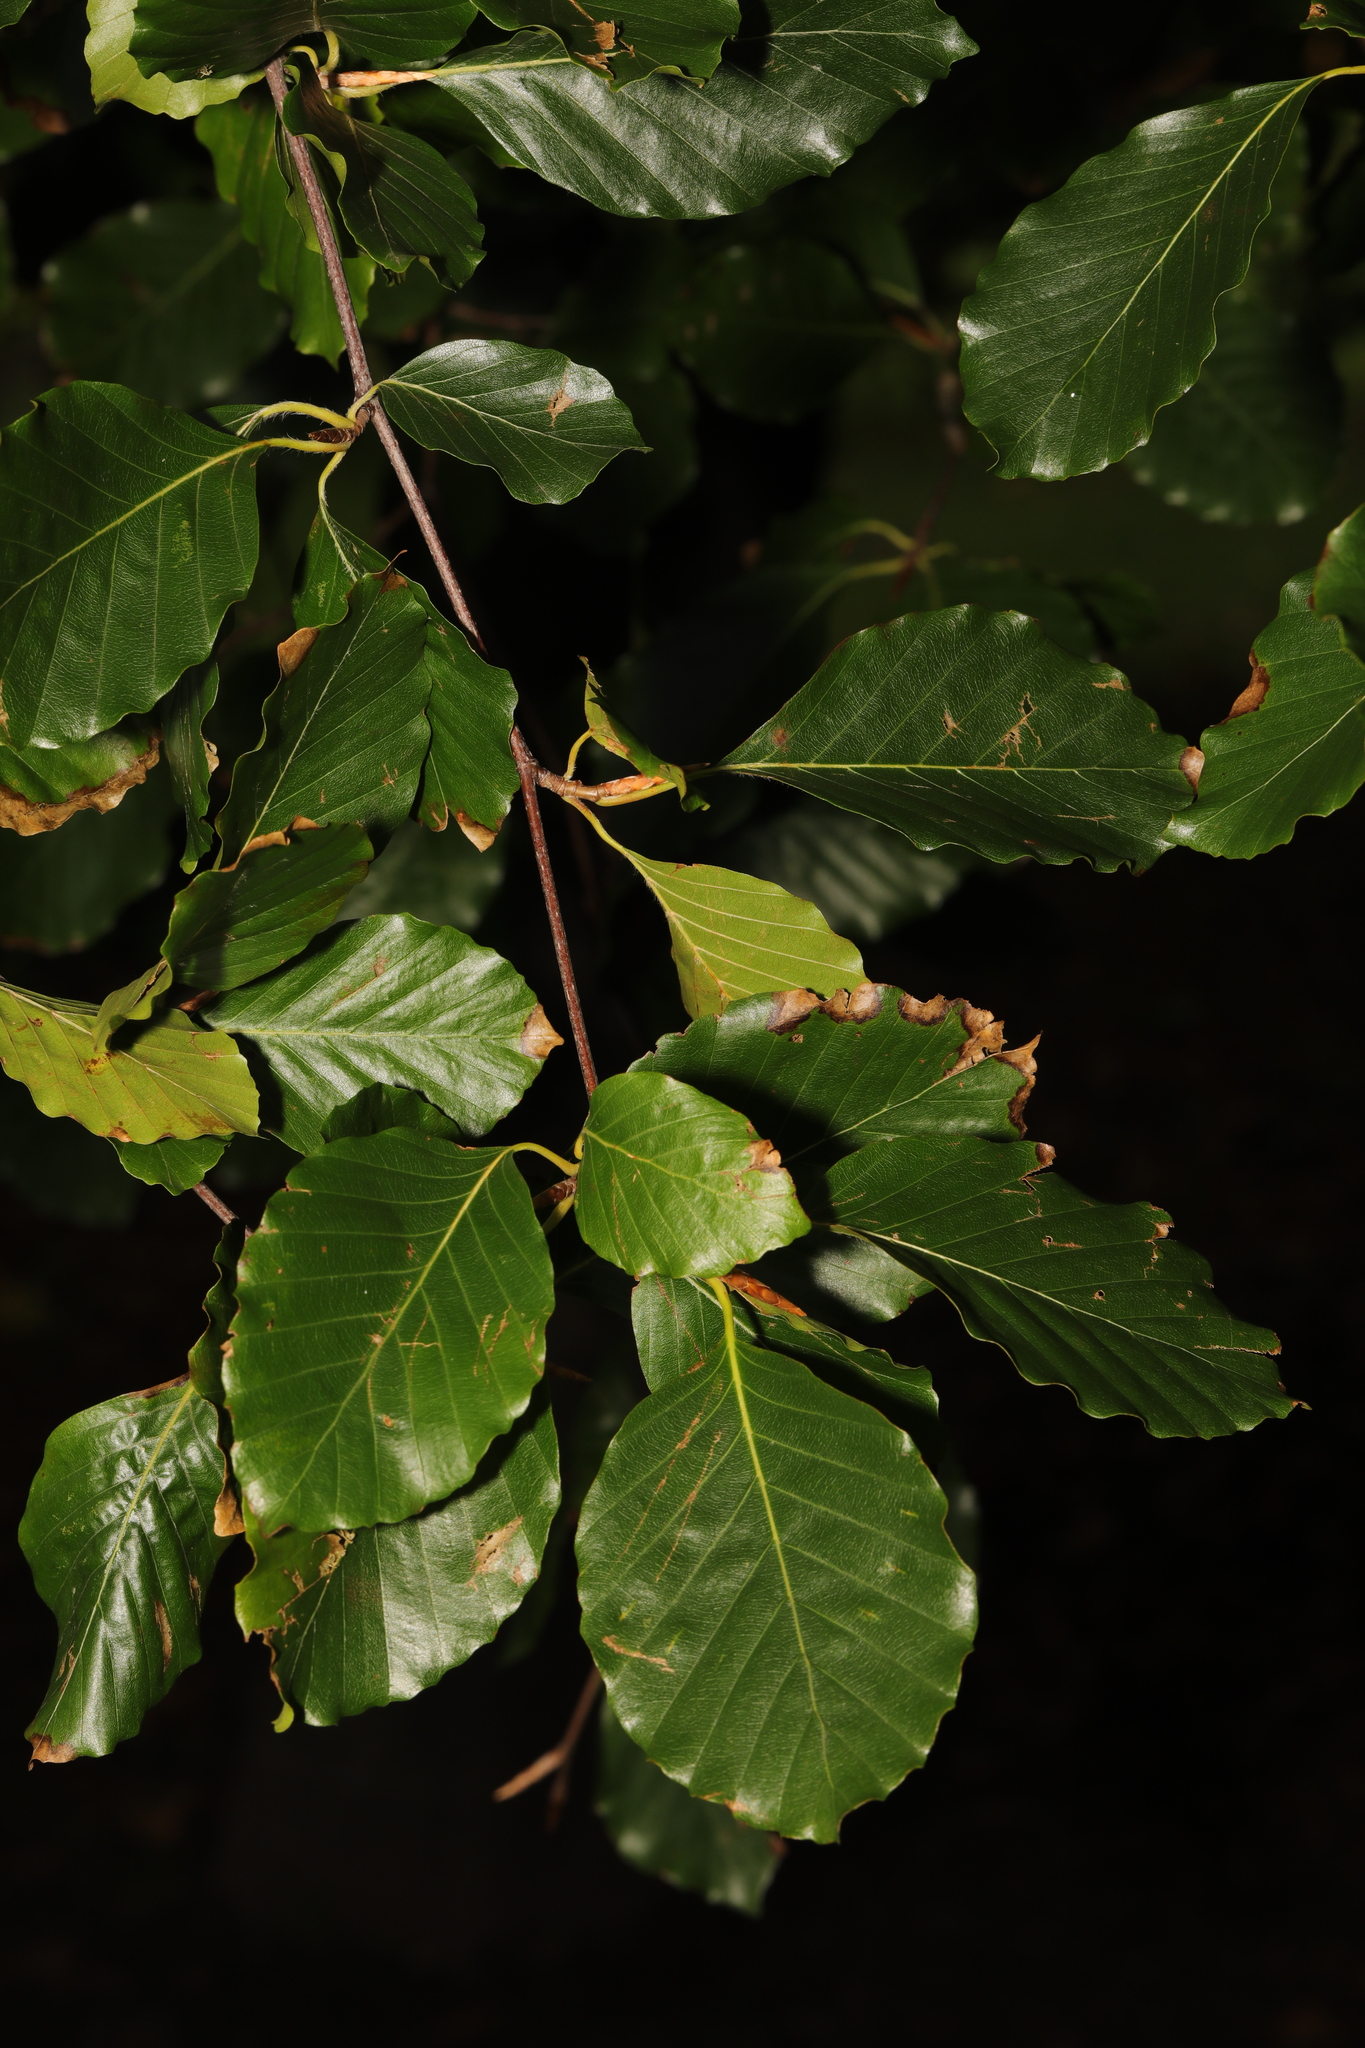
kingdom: Plantae
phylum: Tracheophyta
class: Magnoliopsida
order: Fagales
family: Fagaceae
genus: Fagus
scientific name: Fagus sylvatica
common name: Beech
